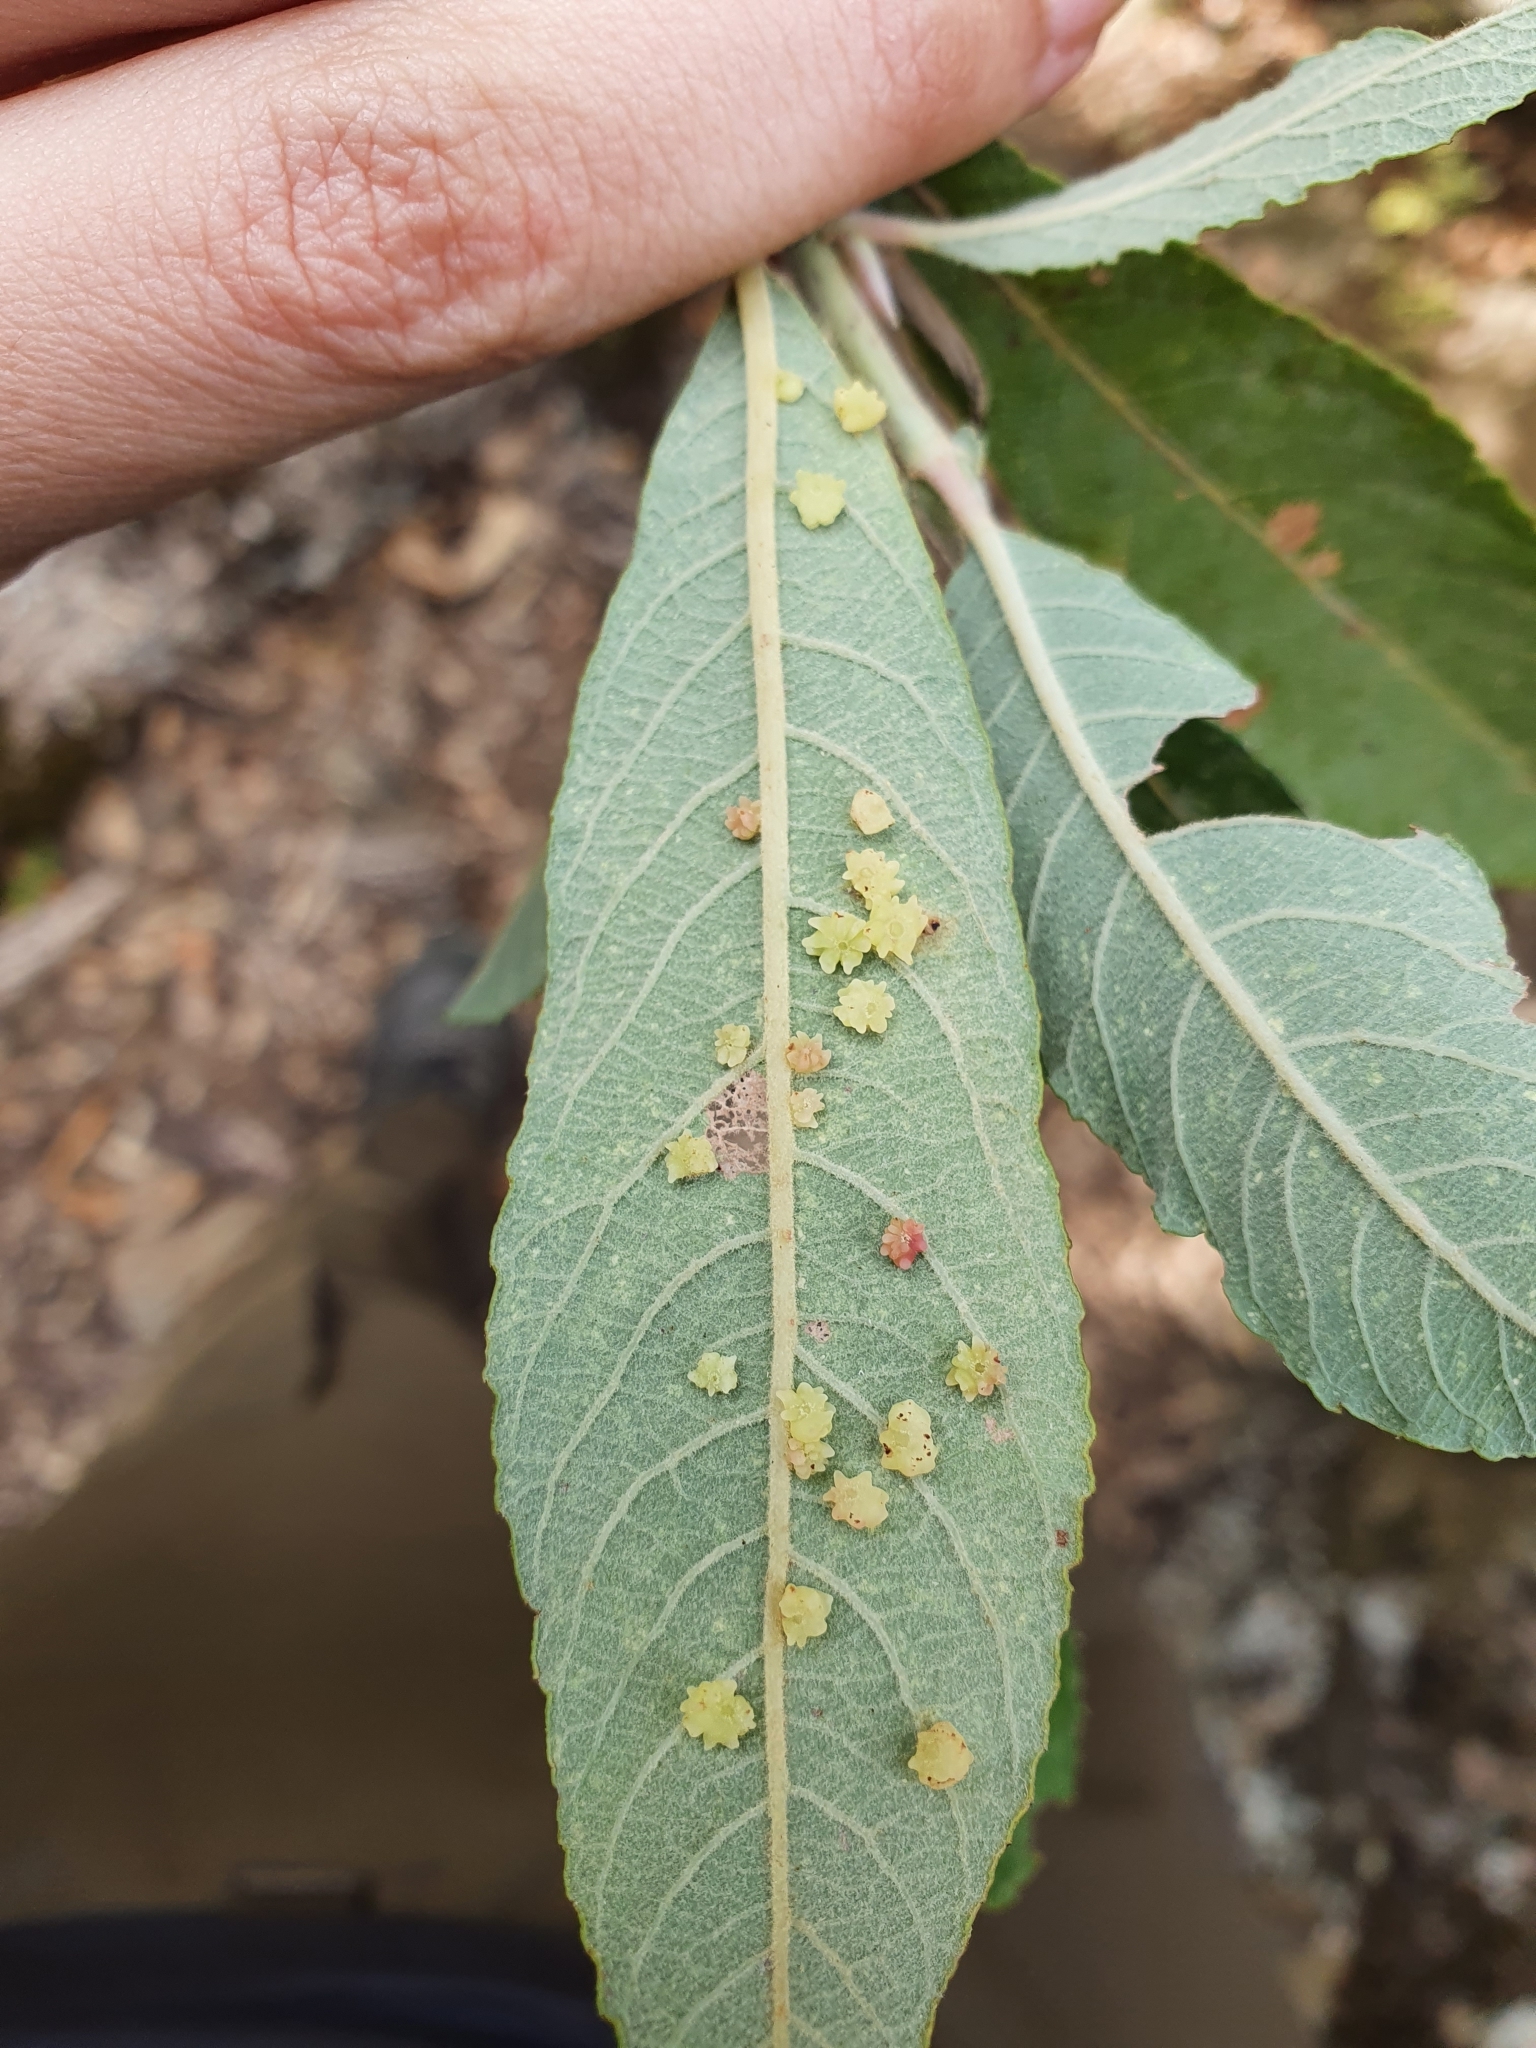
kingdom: Animalia
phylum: Arthropoda
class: Insecta
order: Diptera
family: Cecidomyiidae
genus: Iteomyia
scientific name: Iteomyia peyerimhofi
